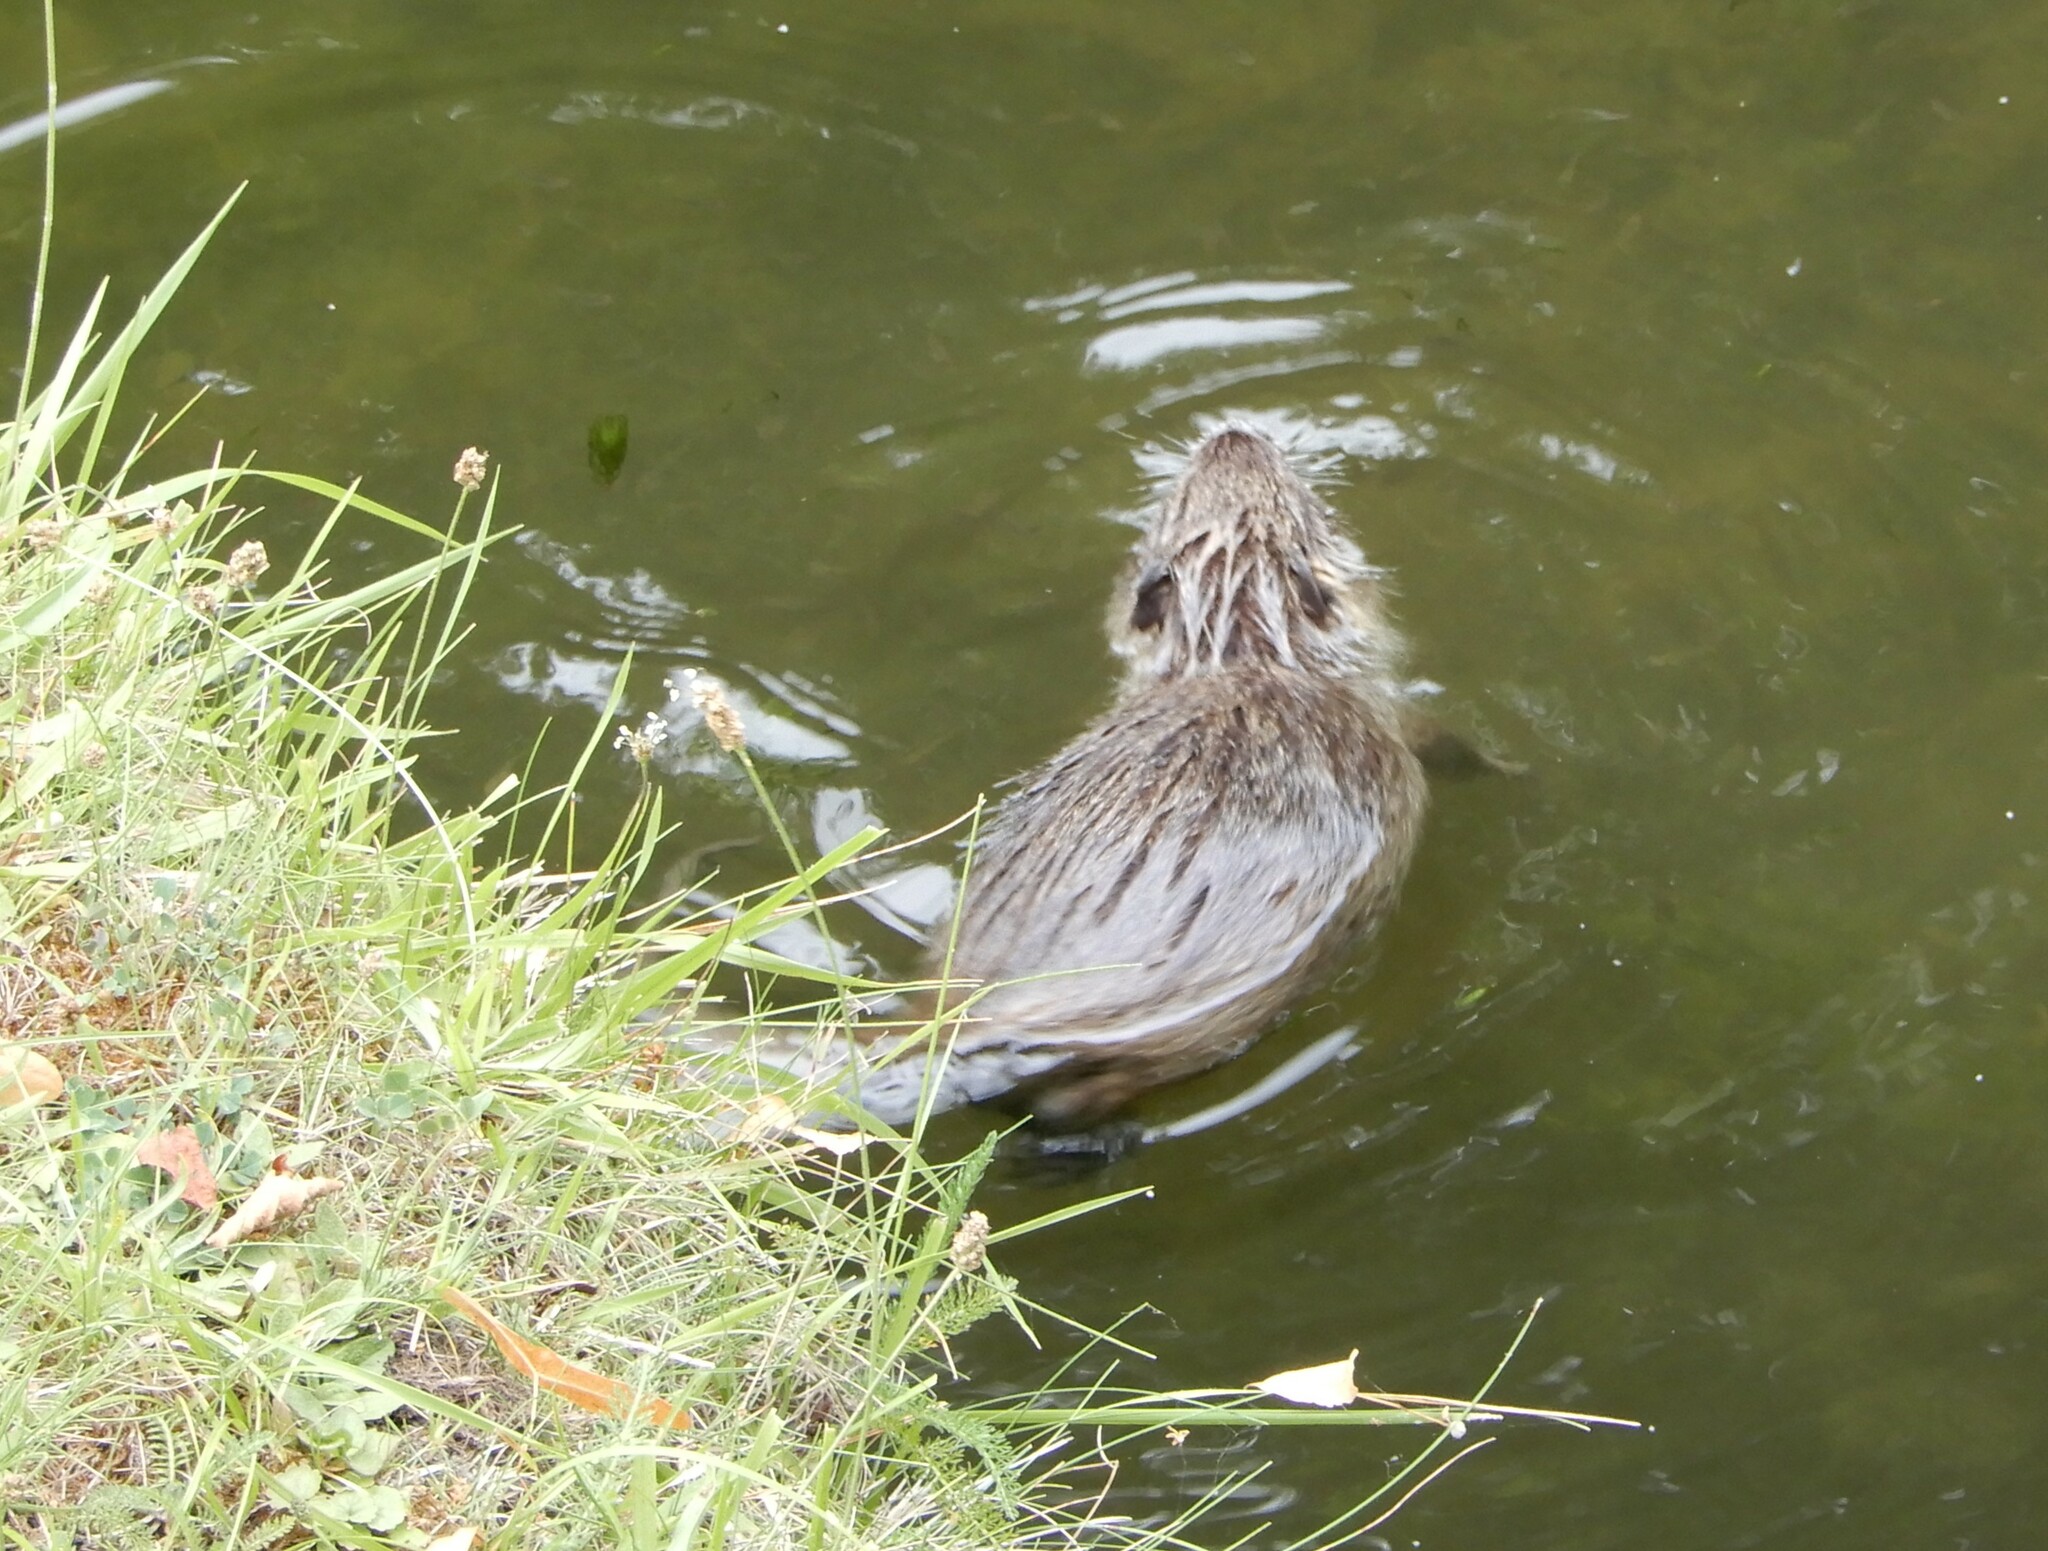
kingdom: Animalia
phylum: Chordata
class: Mammalia
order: Rodentia
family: Myocastoridae
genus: Myocastor
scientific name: Myocastor coypus
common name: Coypu
